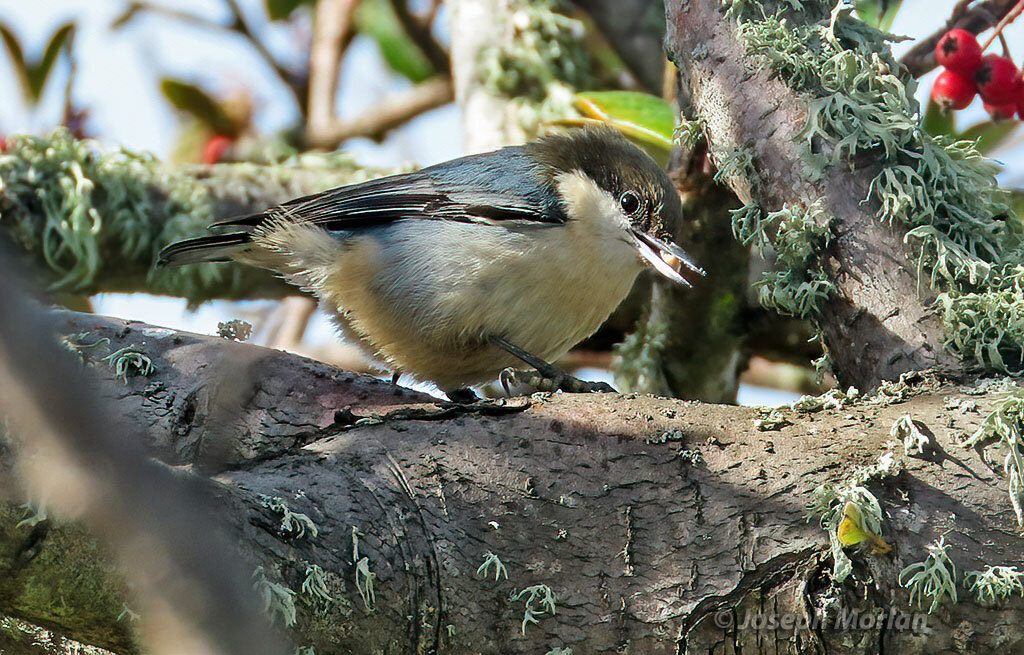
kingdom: Animalia
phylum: Chordata
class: Aves
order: Passeriformes
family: Sittidae
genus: Sitta
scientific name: Sitta pygmaea
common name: Pygmy nuthatch
